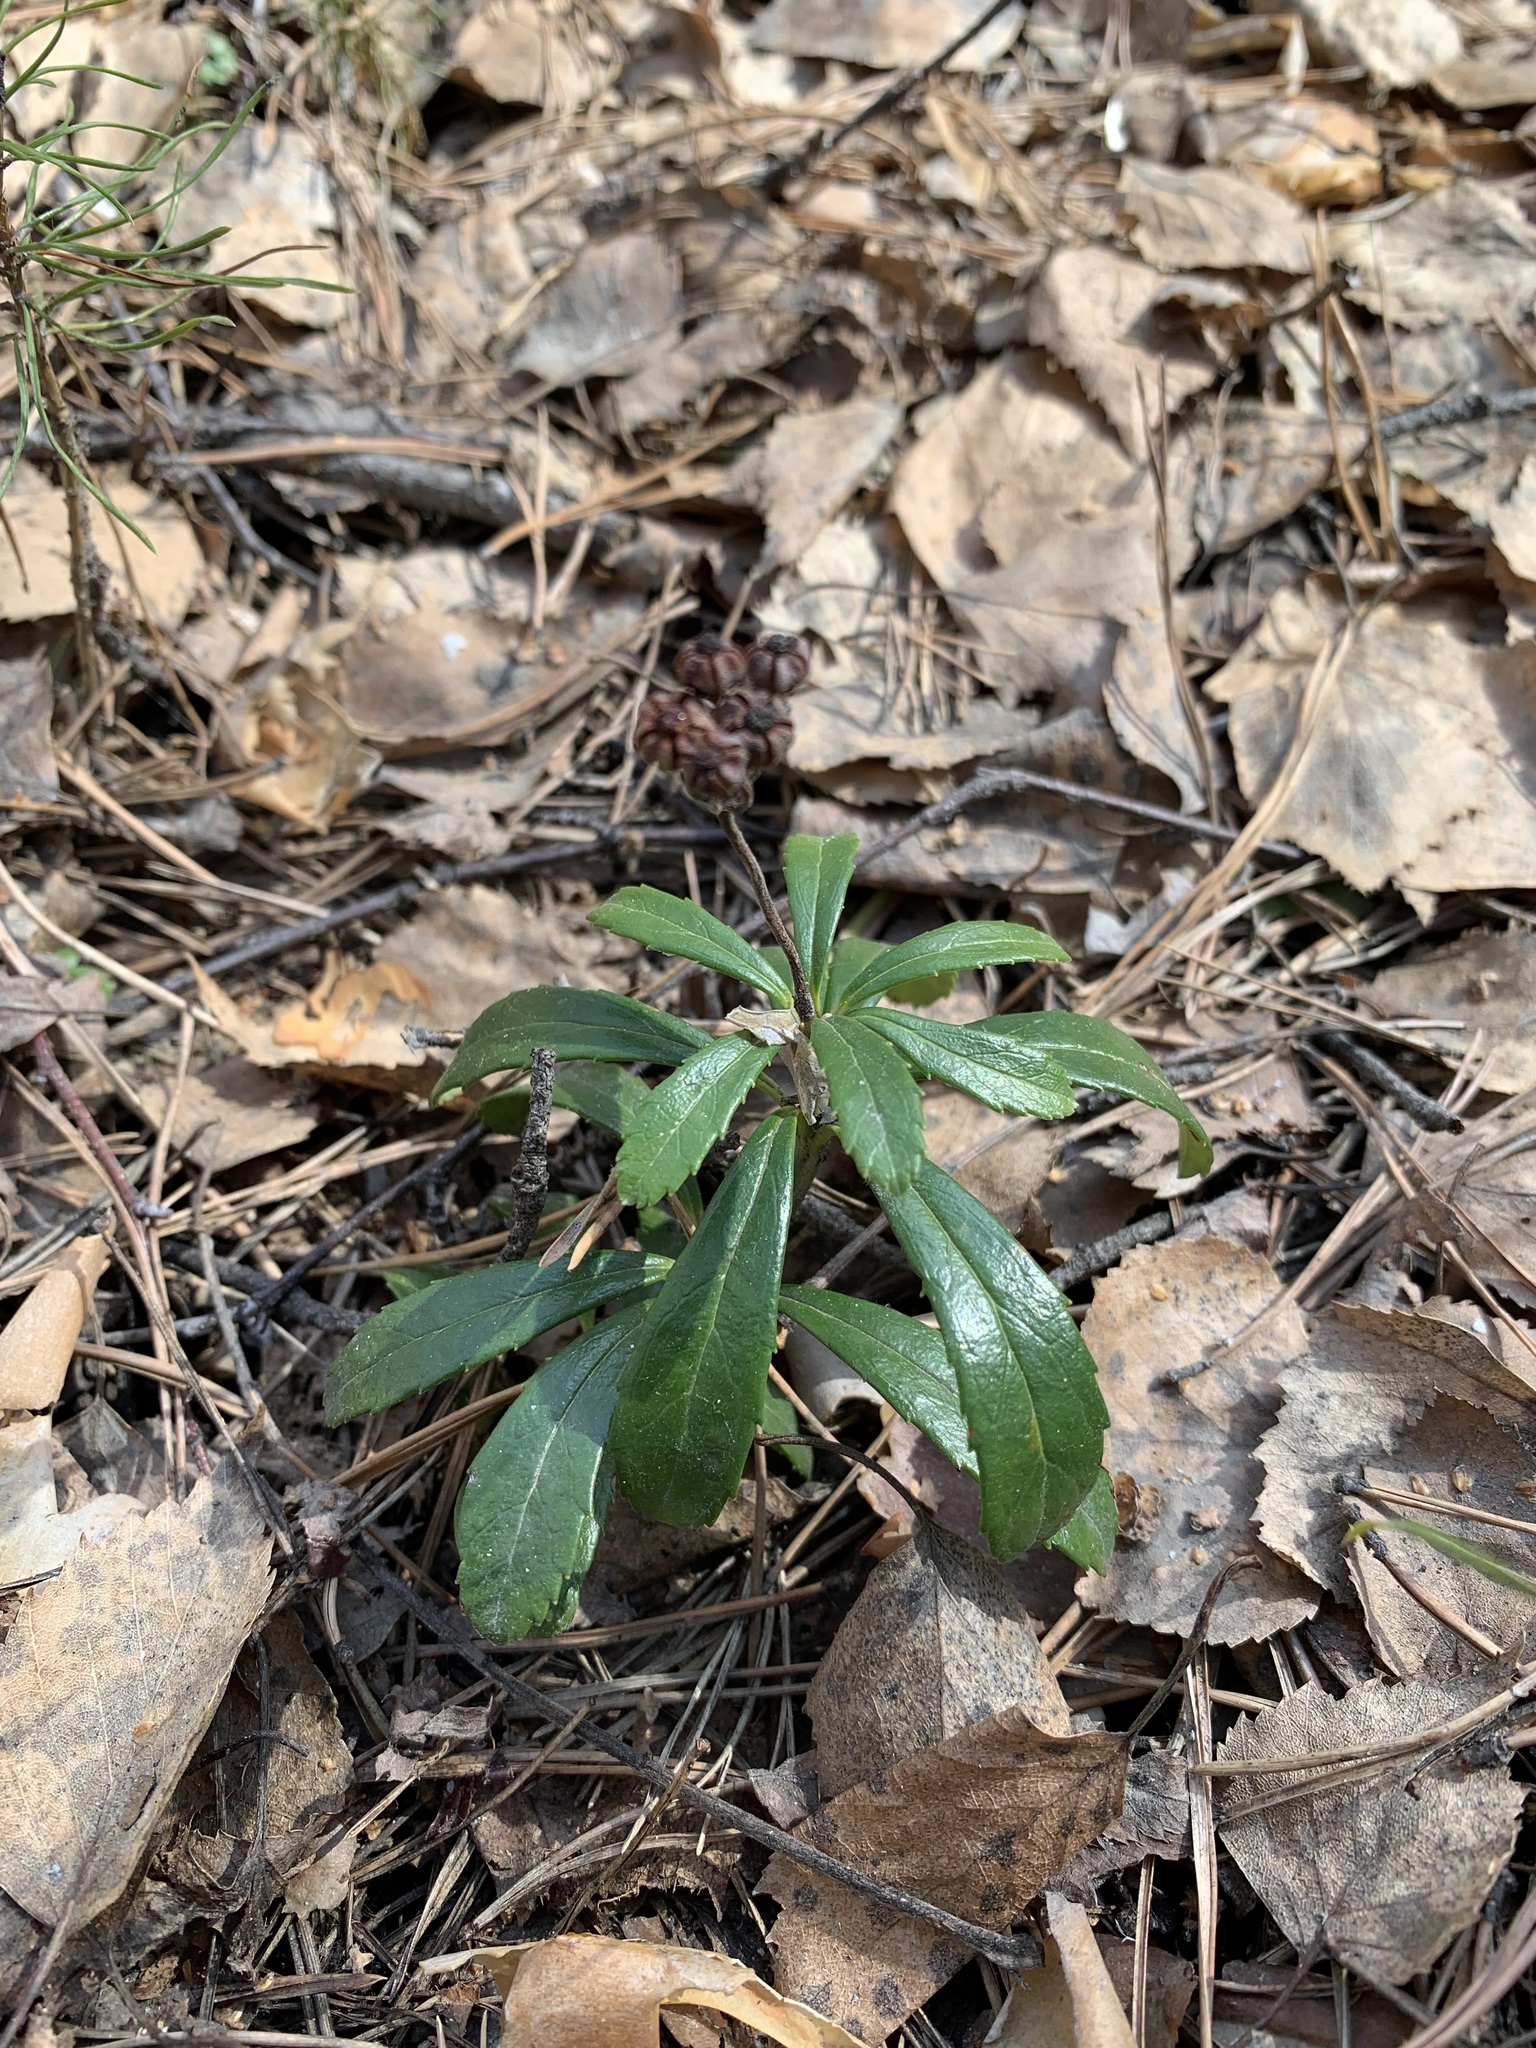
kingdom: Plantae
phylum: Tracheophyta
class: Magnoliopsida
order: Ericales
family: Ericaceae
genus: Chimaphila
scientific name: Chimaphila umbellata
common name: Pipsissewa
